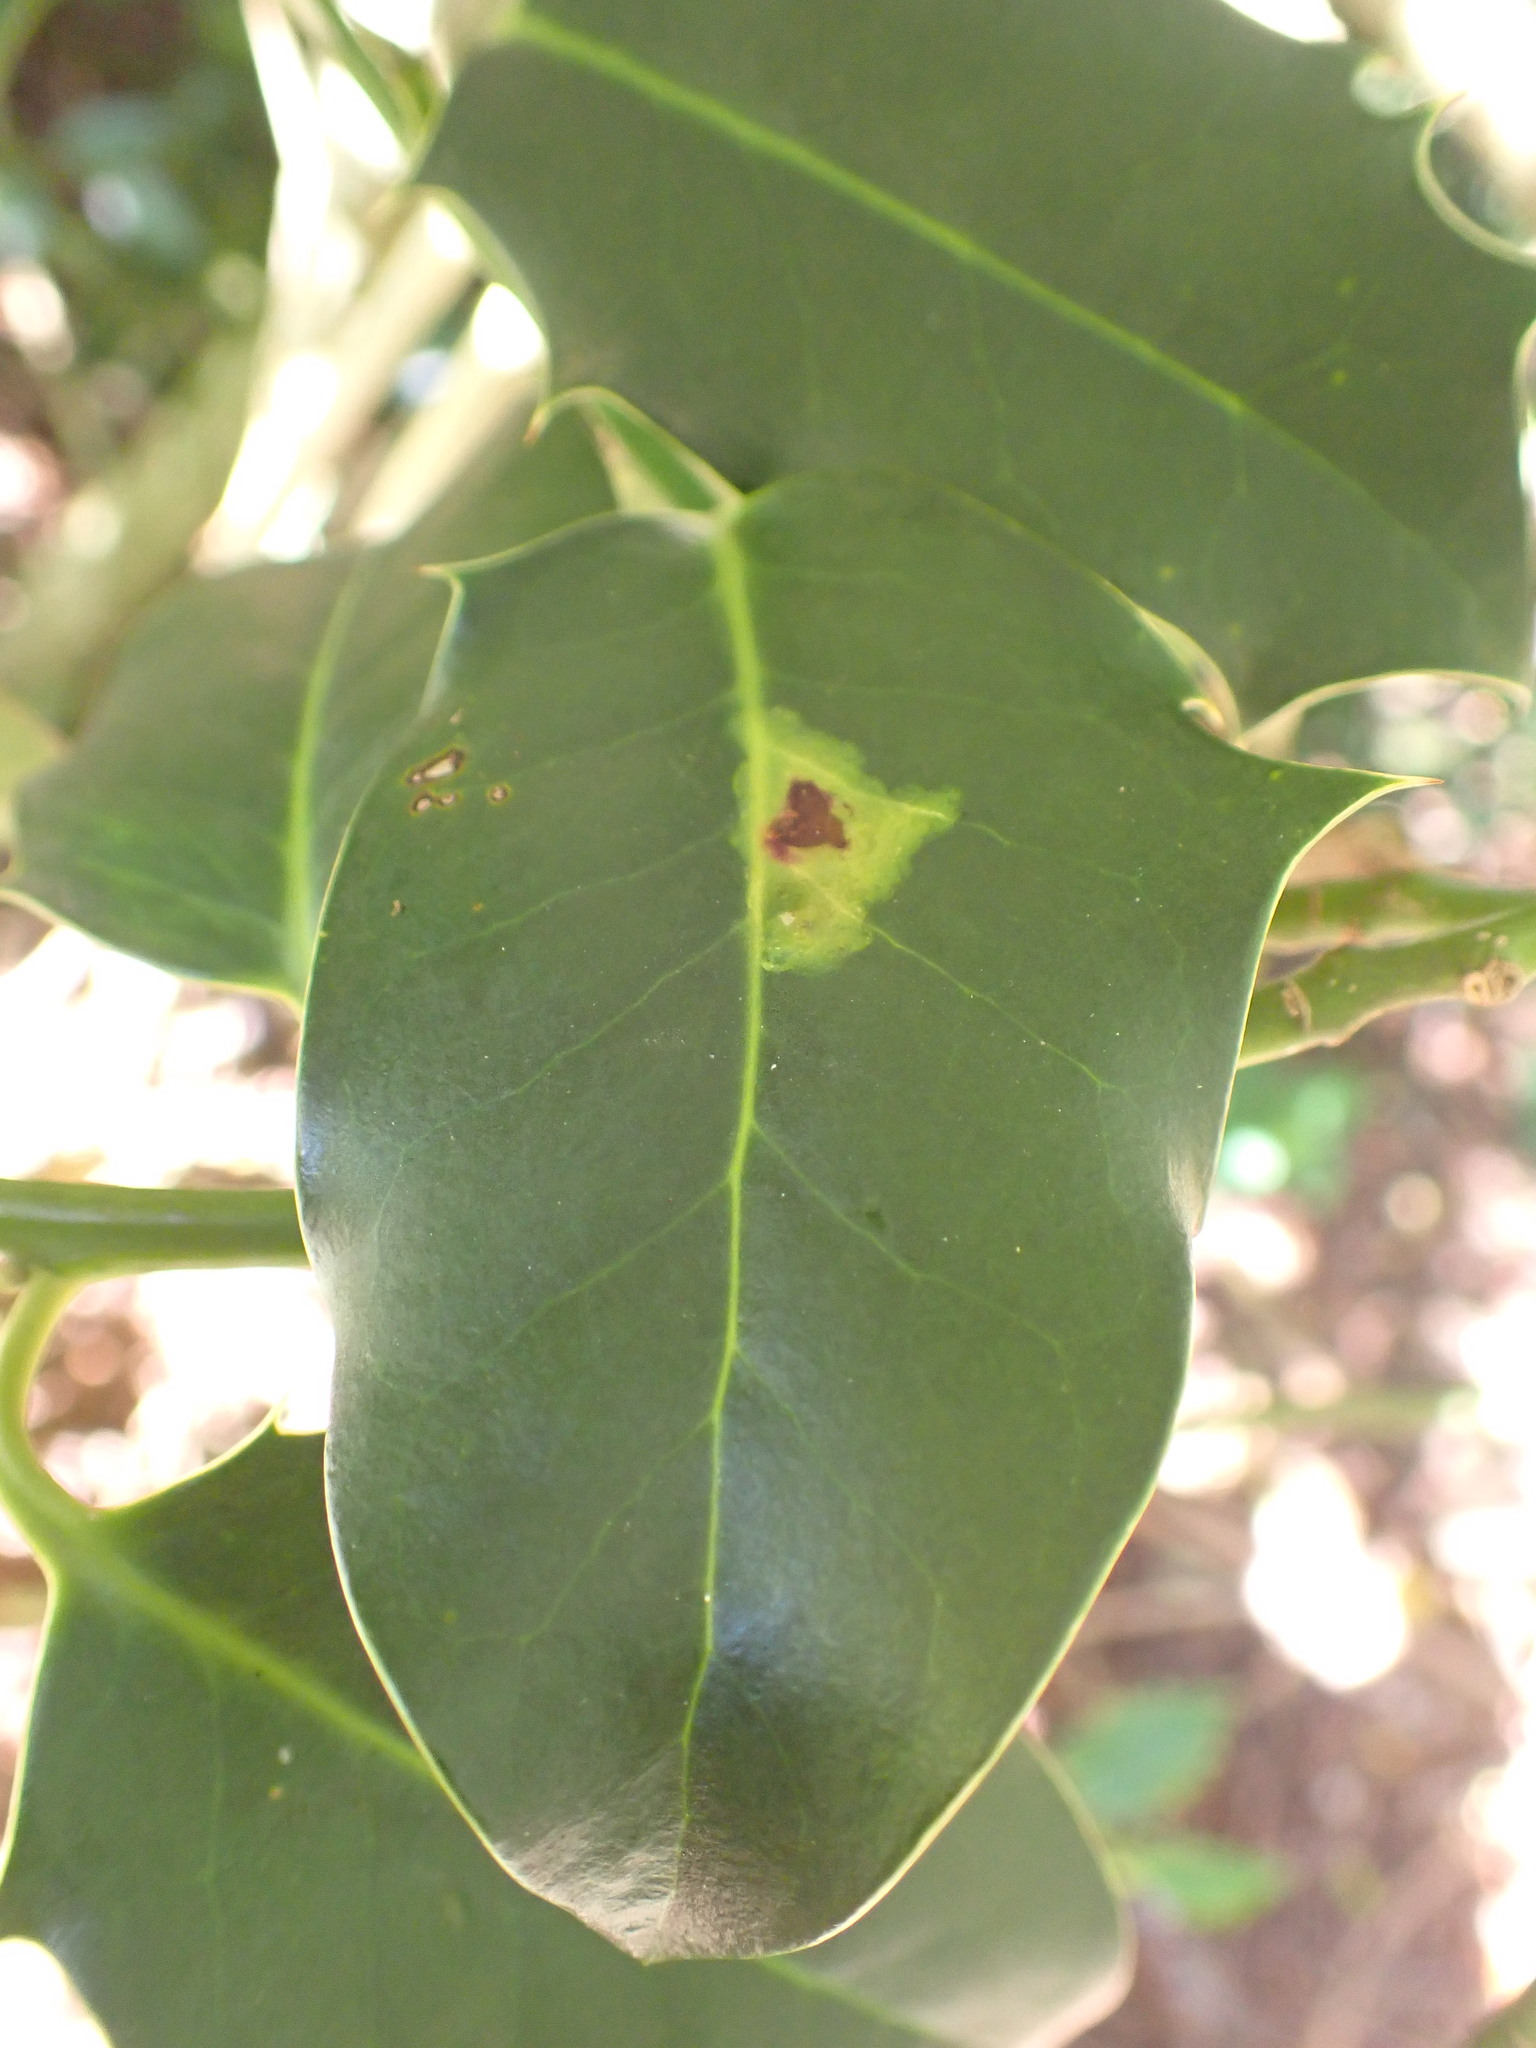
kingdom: Animalia
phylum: Arthropoda
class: Insecta
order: Diptera
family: Agromyzidae
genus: Phytomyza
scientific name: Phytomyza ilicis
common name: Holly leafminer
